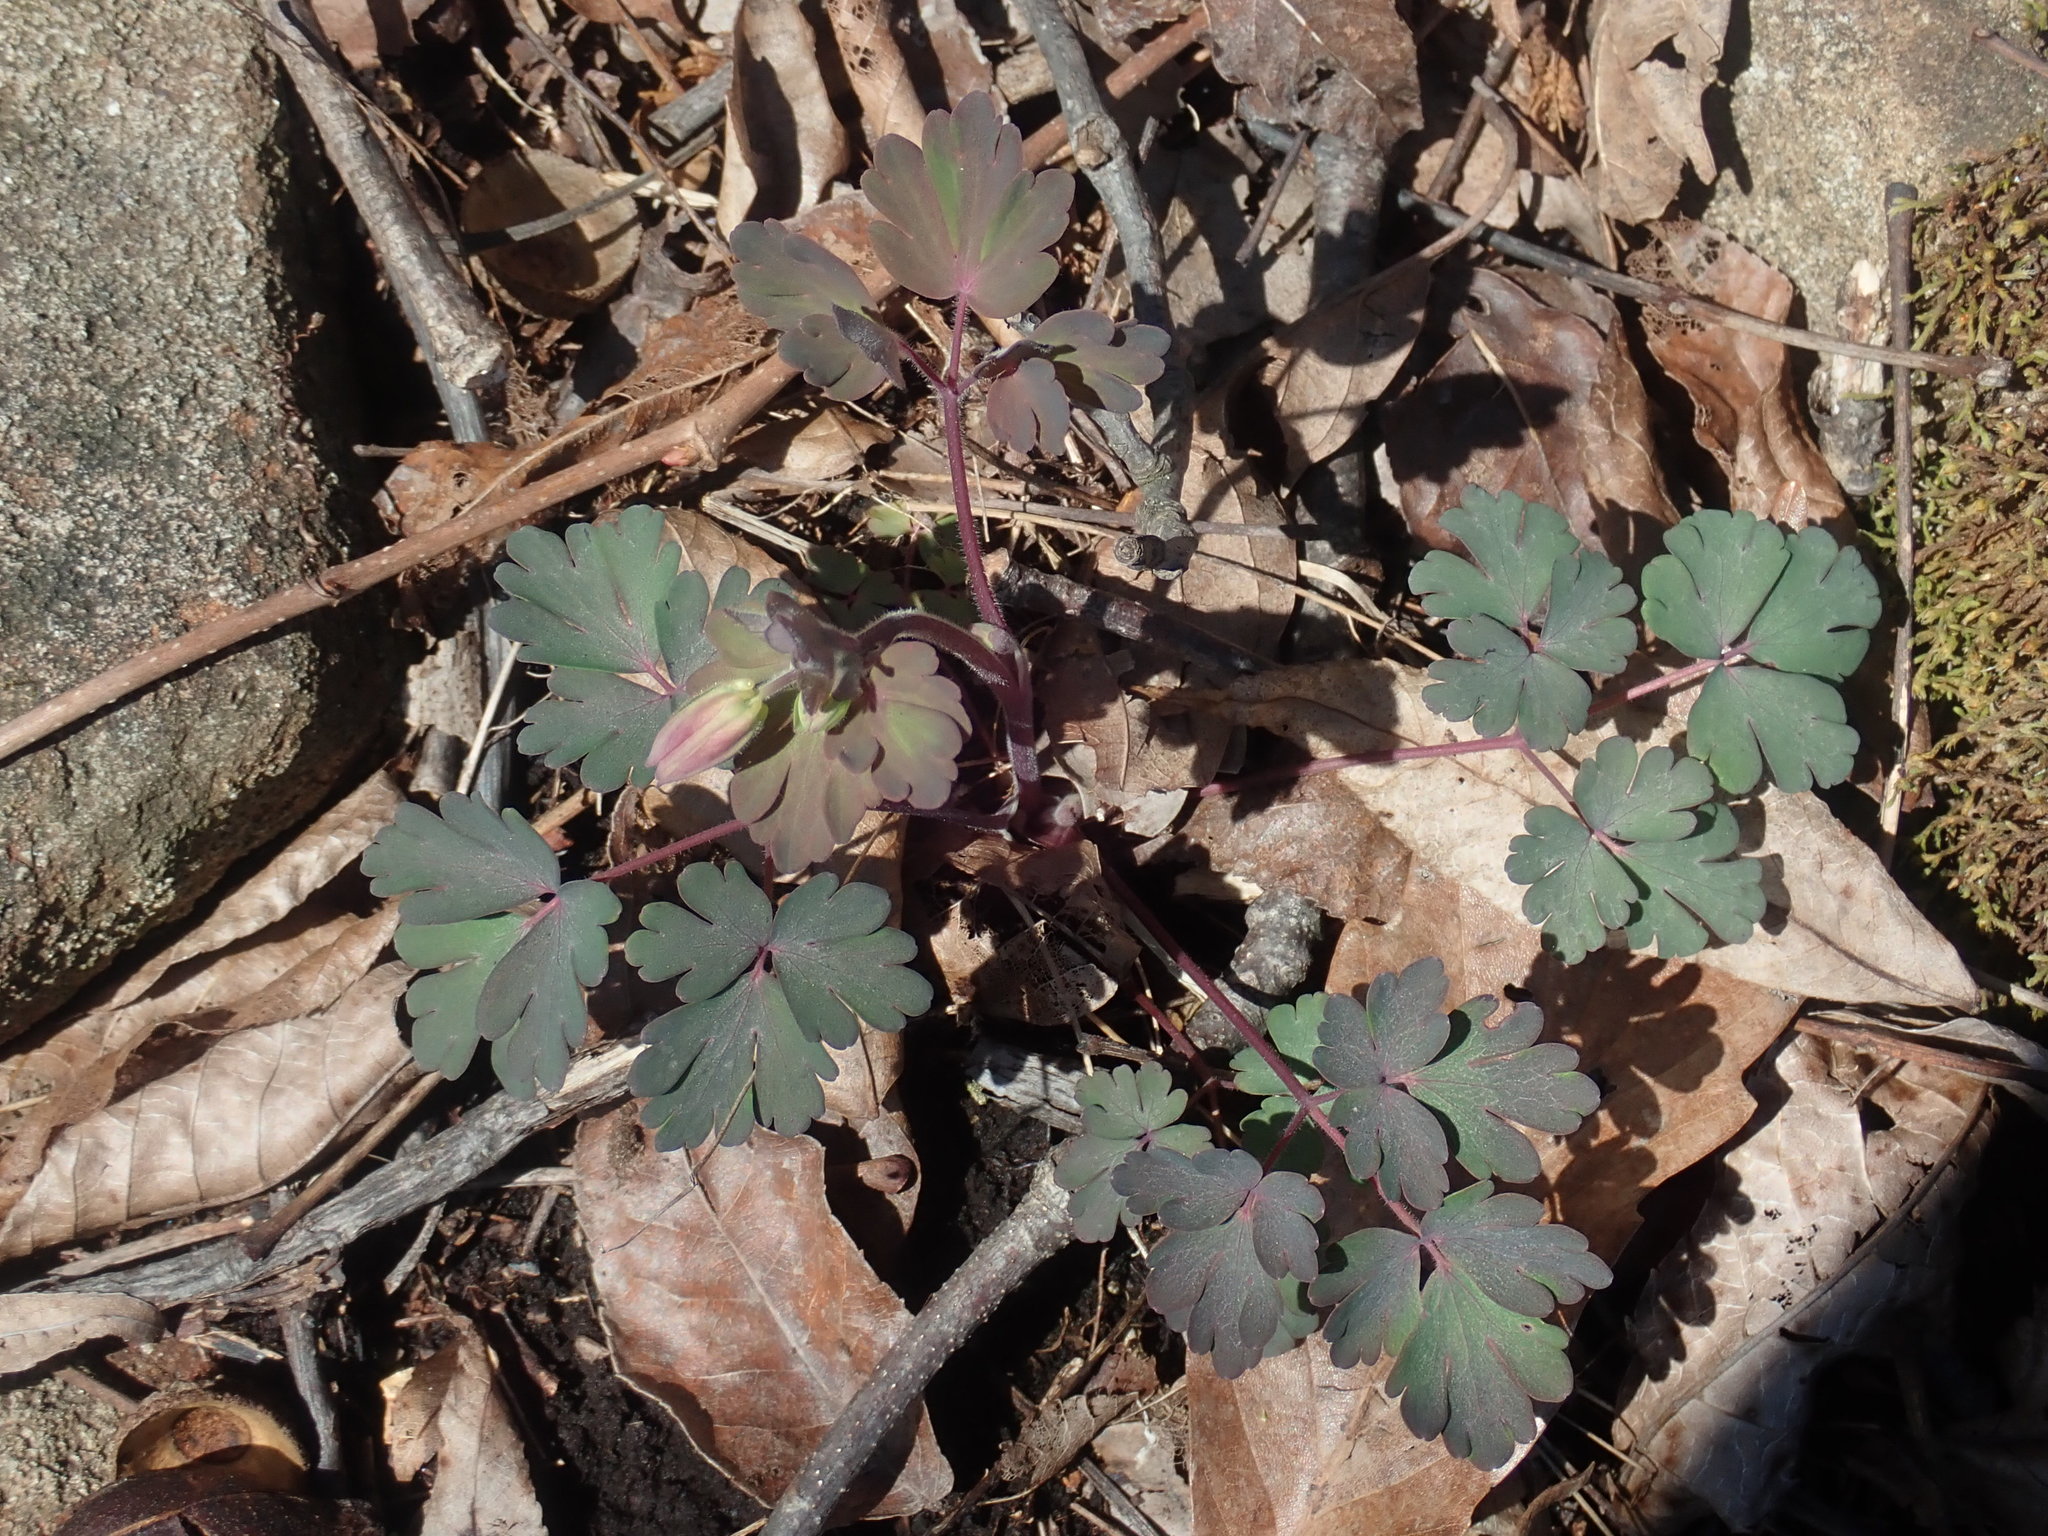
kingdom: Plantae
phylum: Tracheophyta
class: Magnoliopsida
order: Ranunculales
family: Ranunculaceae
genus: Aquilegia
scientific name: Aquilegia canadensis
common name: American columbine
